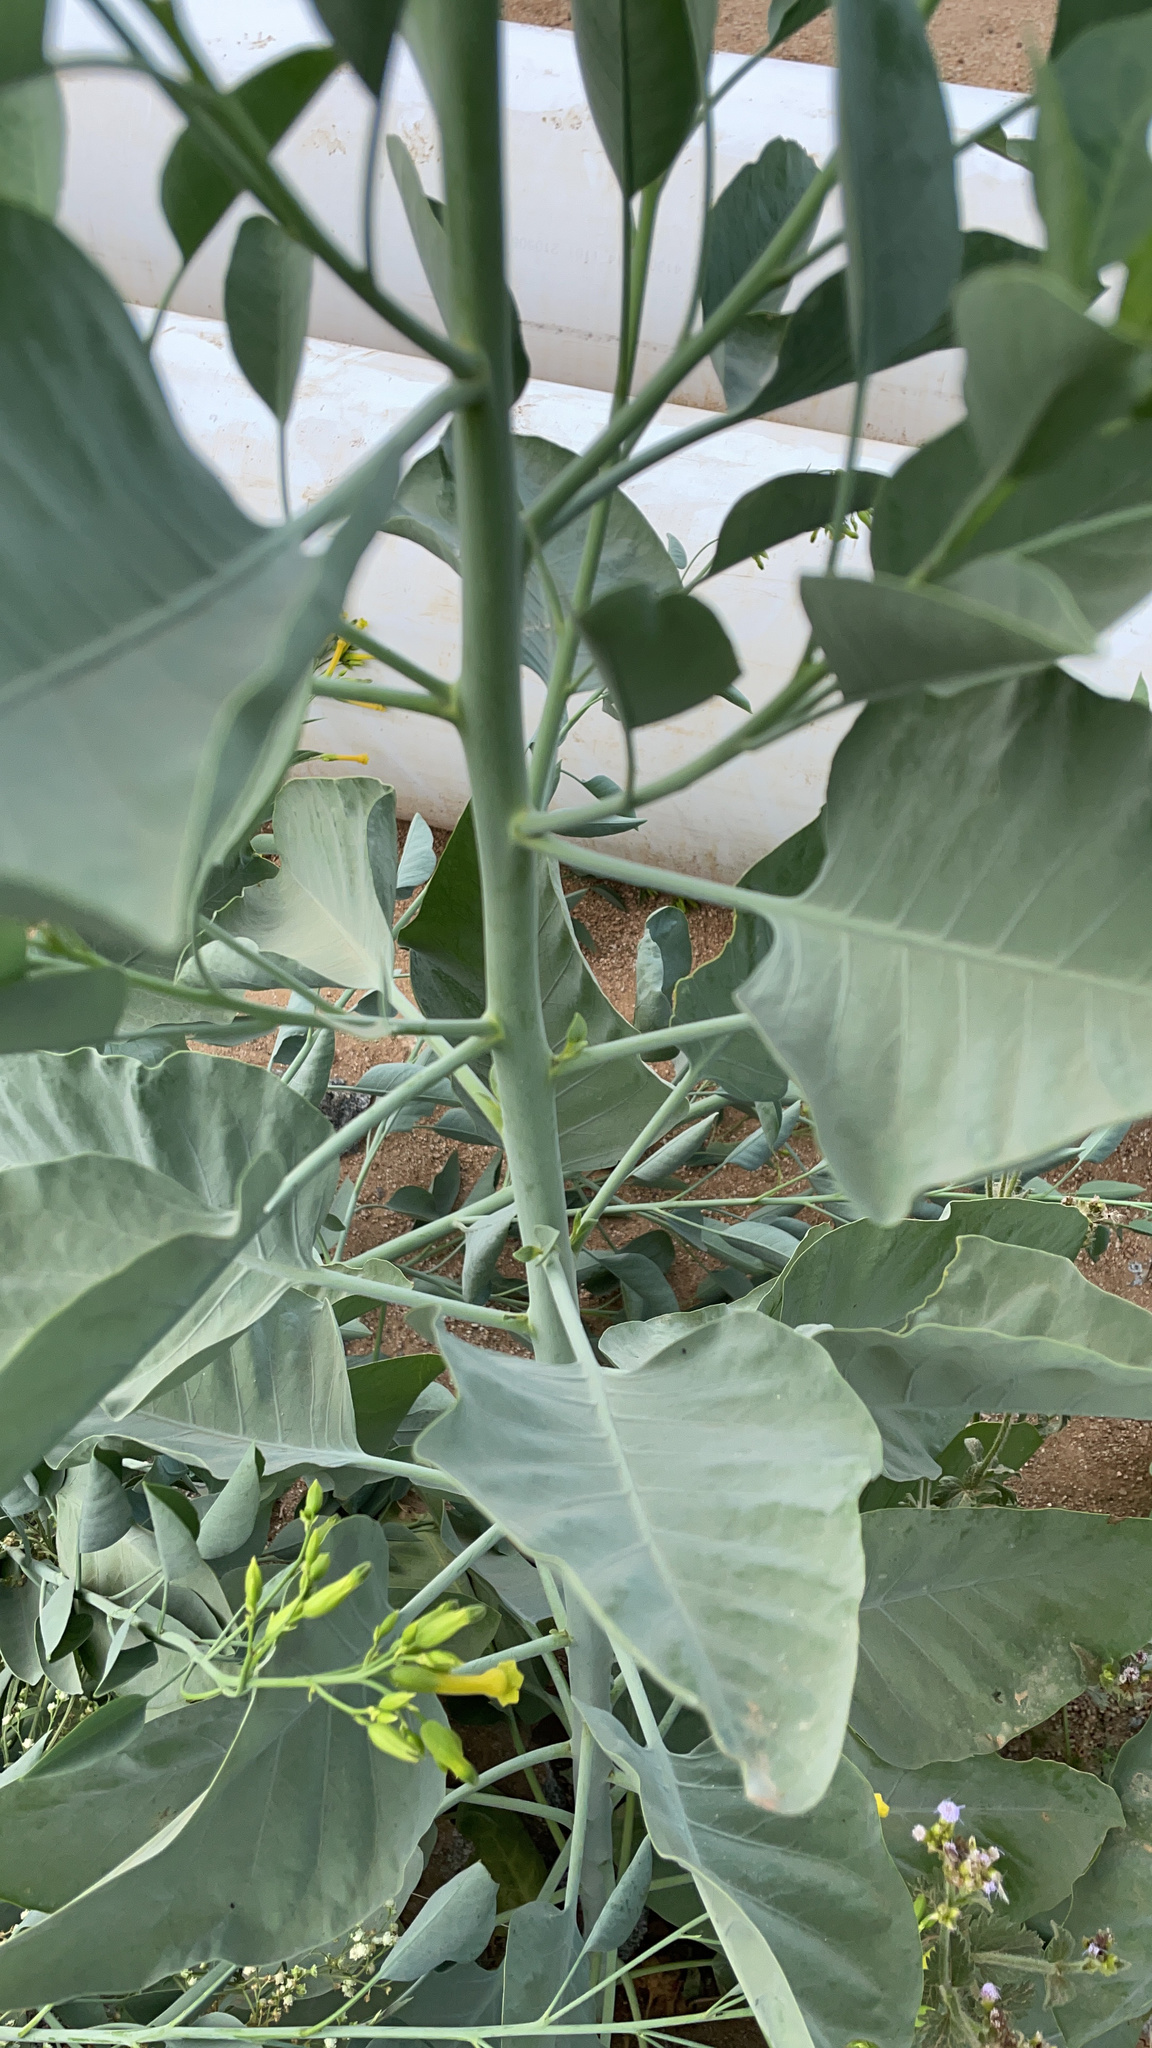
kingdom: Plantae
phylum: Tracheophyta
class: Magnoliopsida
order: Solanales
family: Solanaceae
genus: Nicotiana
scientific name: Nicotiana glauca
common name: Tree tobacco
